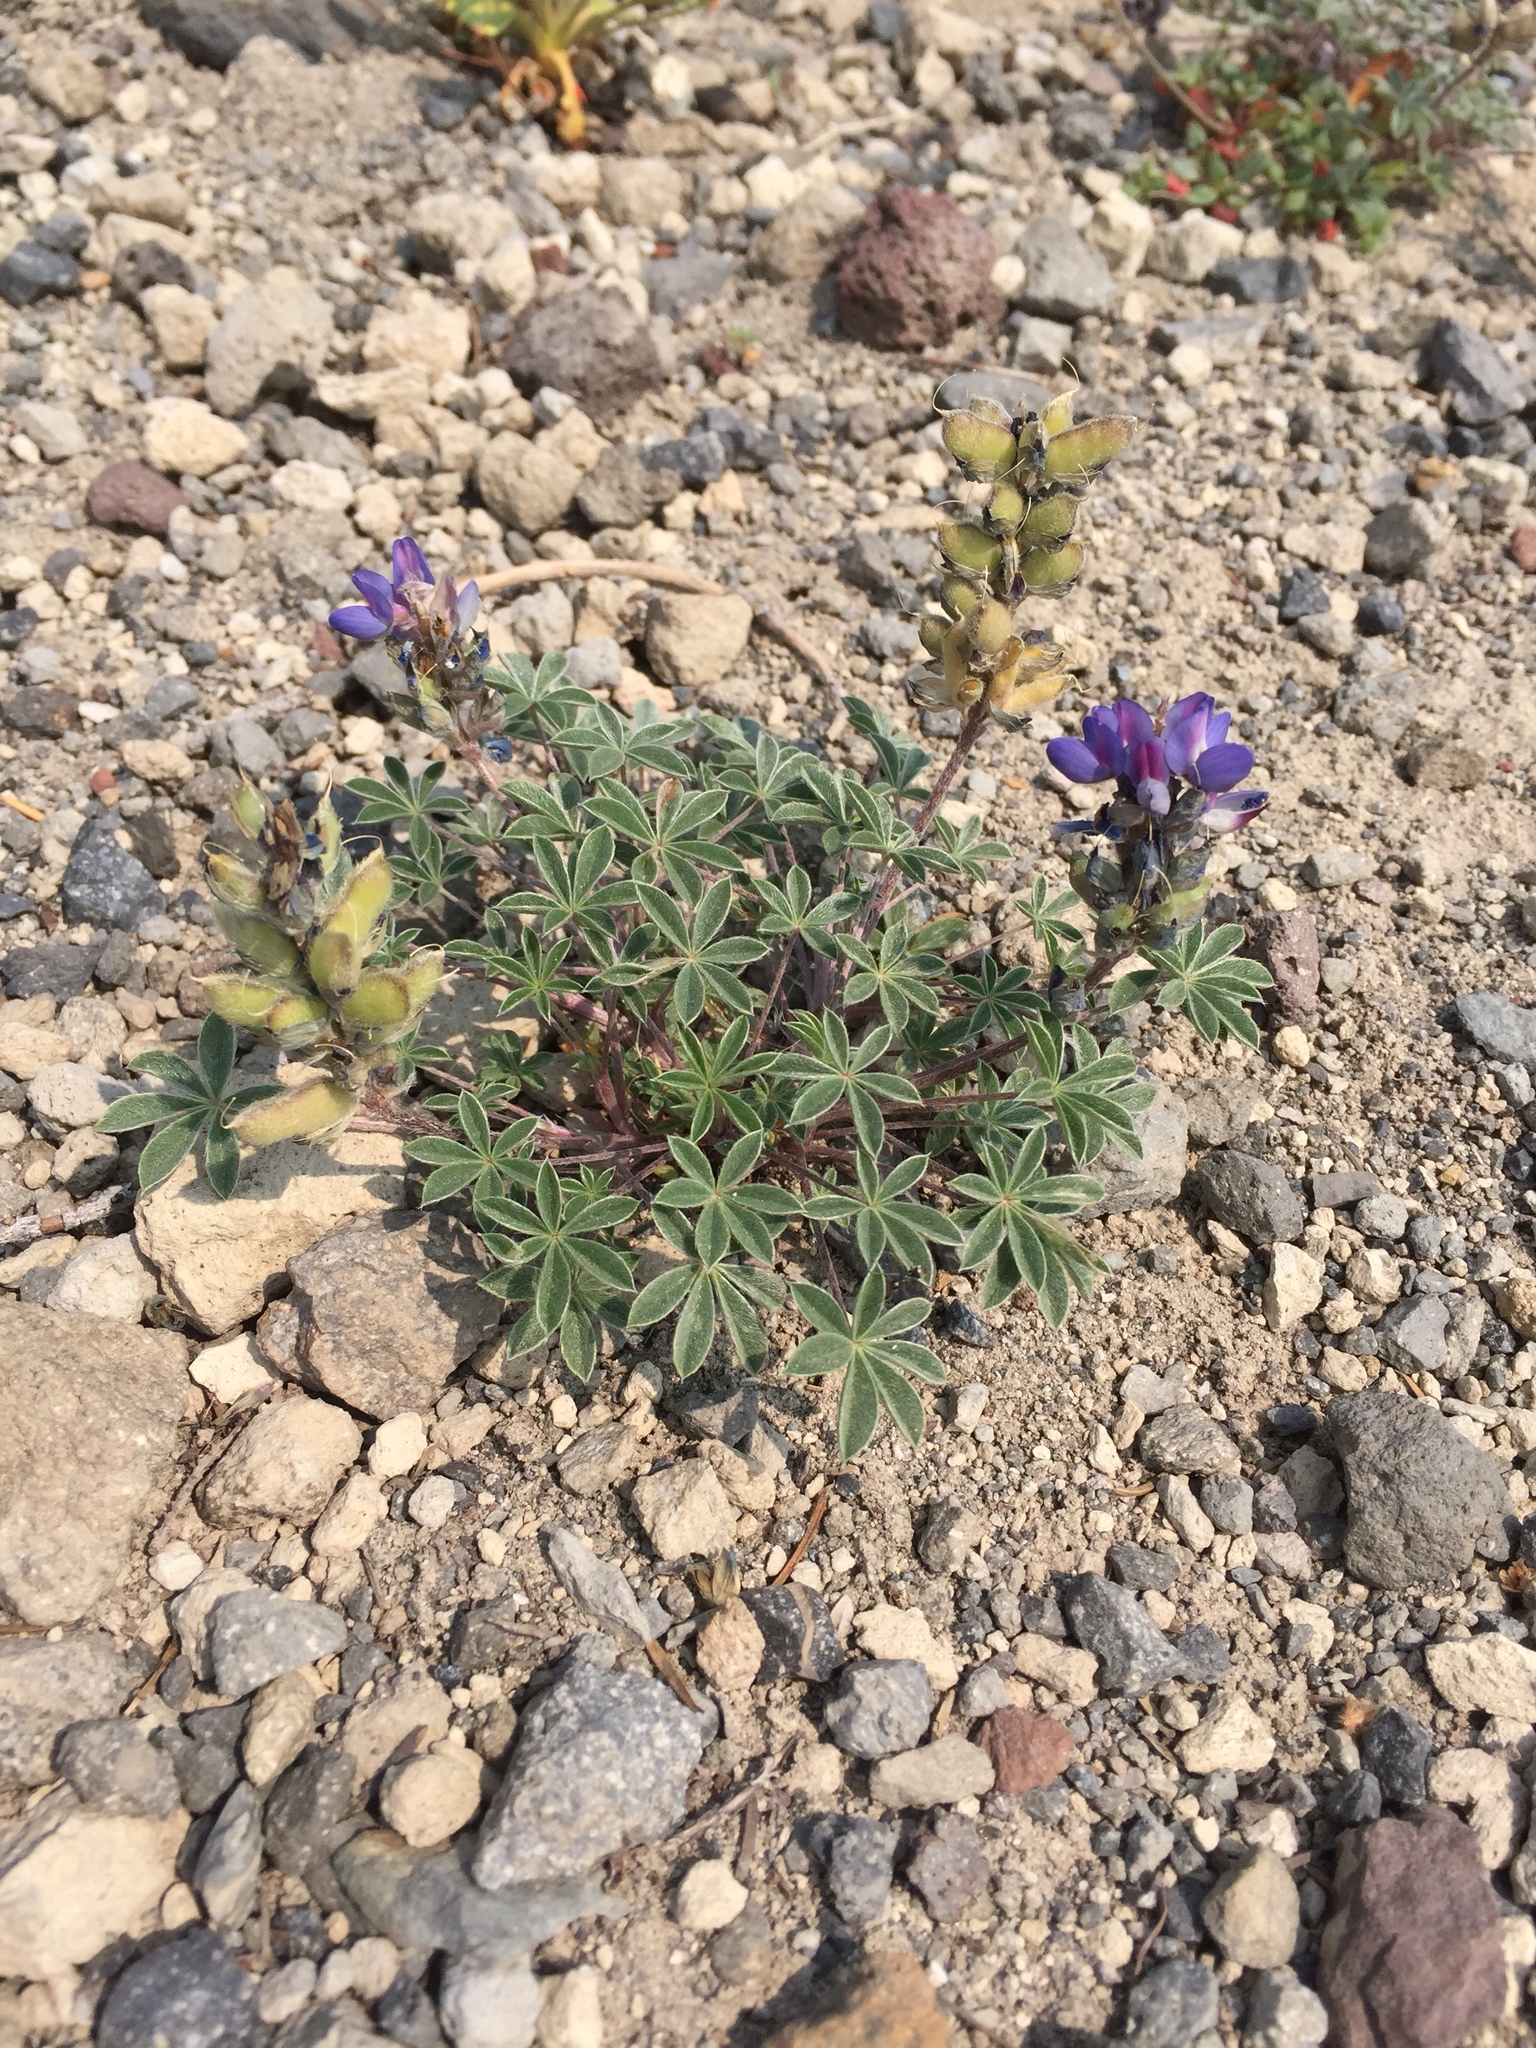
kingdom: Plantae
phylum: Tracheophyta
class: Magnoliopsida
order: Fabales
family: Fabaceae
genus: Lupinus
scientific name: Lupinus lepidus
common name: Prairie lupine
